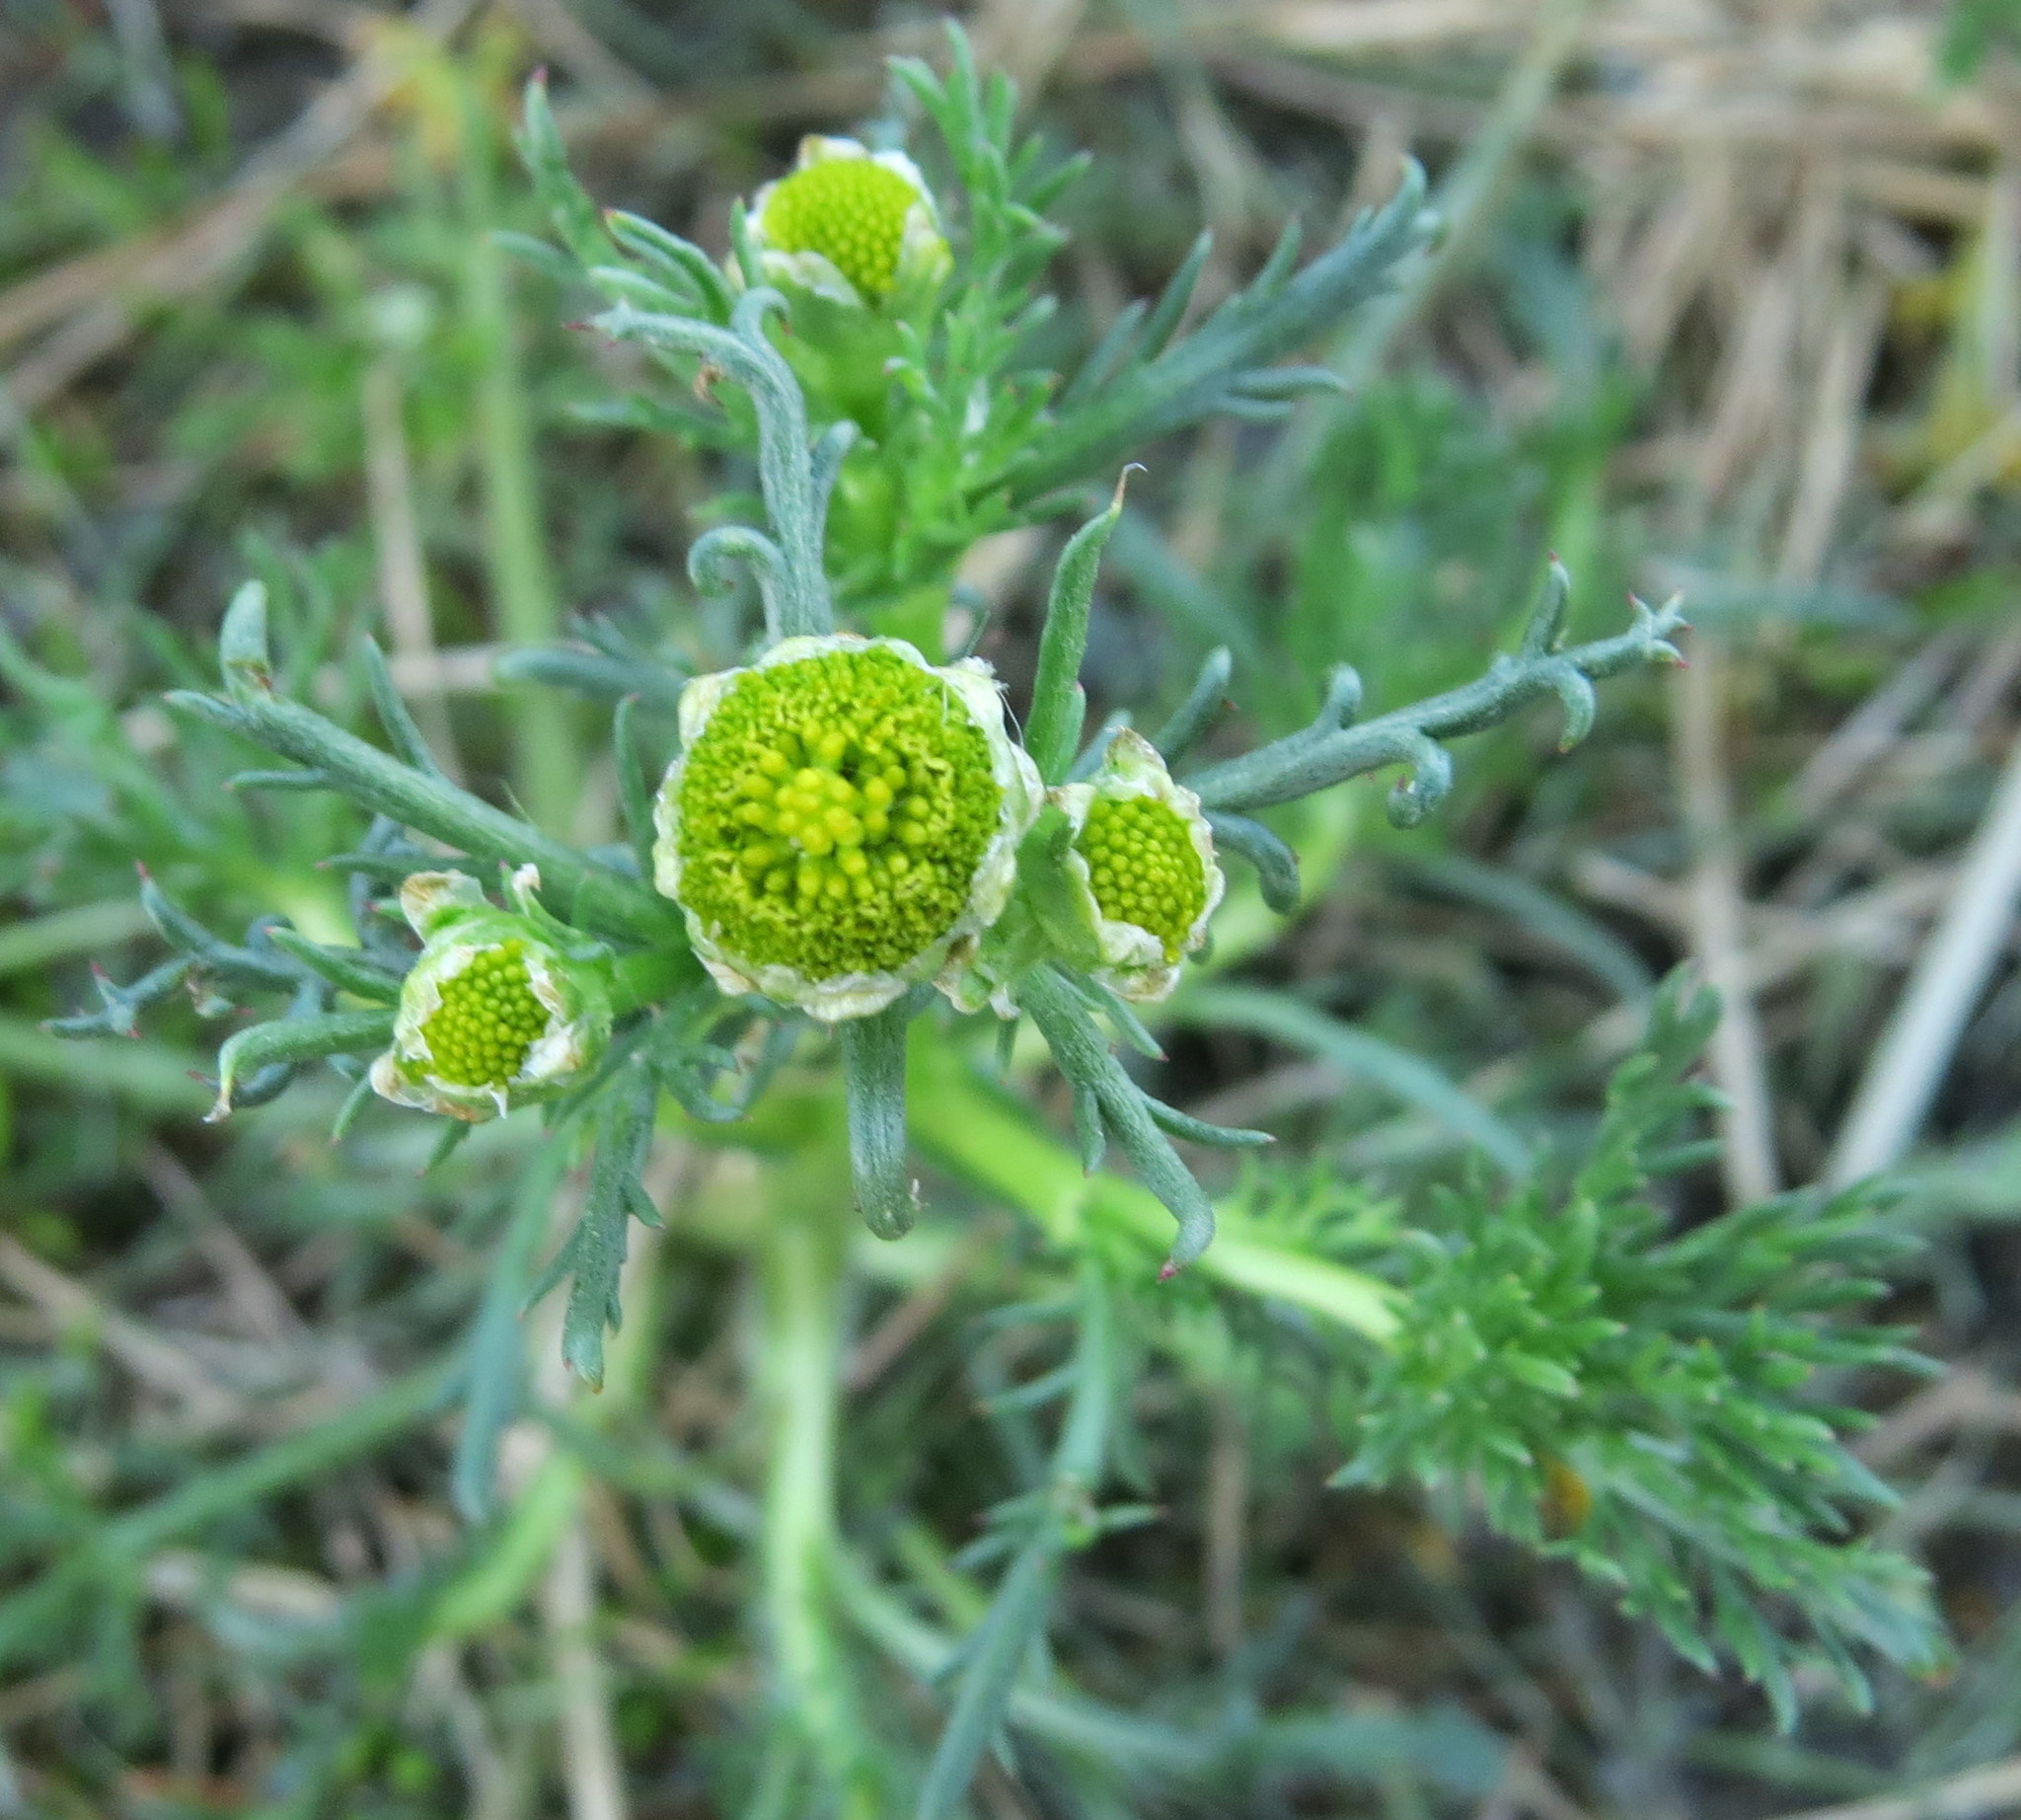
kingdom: Plantae
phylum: Tracheophyta
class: Magnoliopsida
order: Asterales
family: Asteraceae
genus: Matricaria
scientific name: Matricaria discoidea
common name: Disc mayweed
